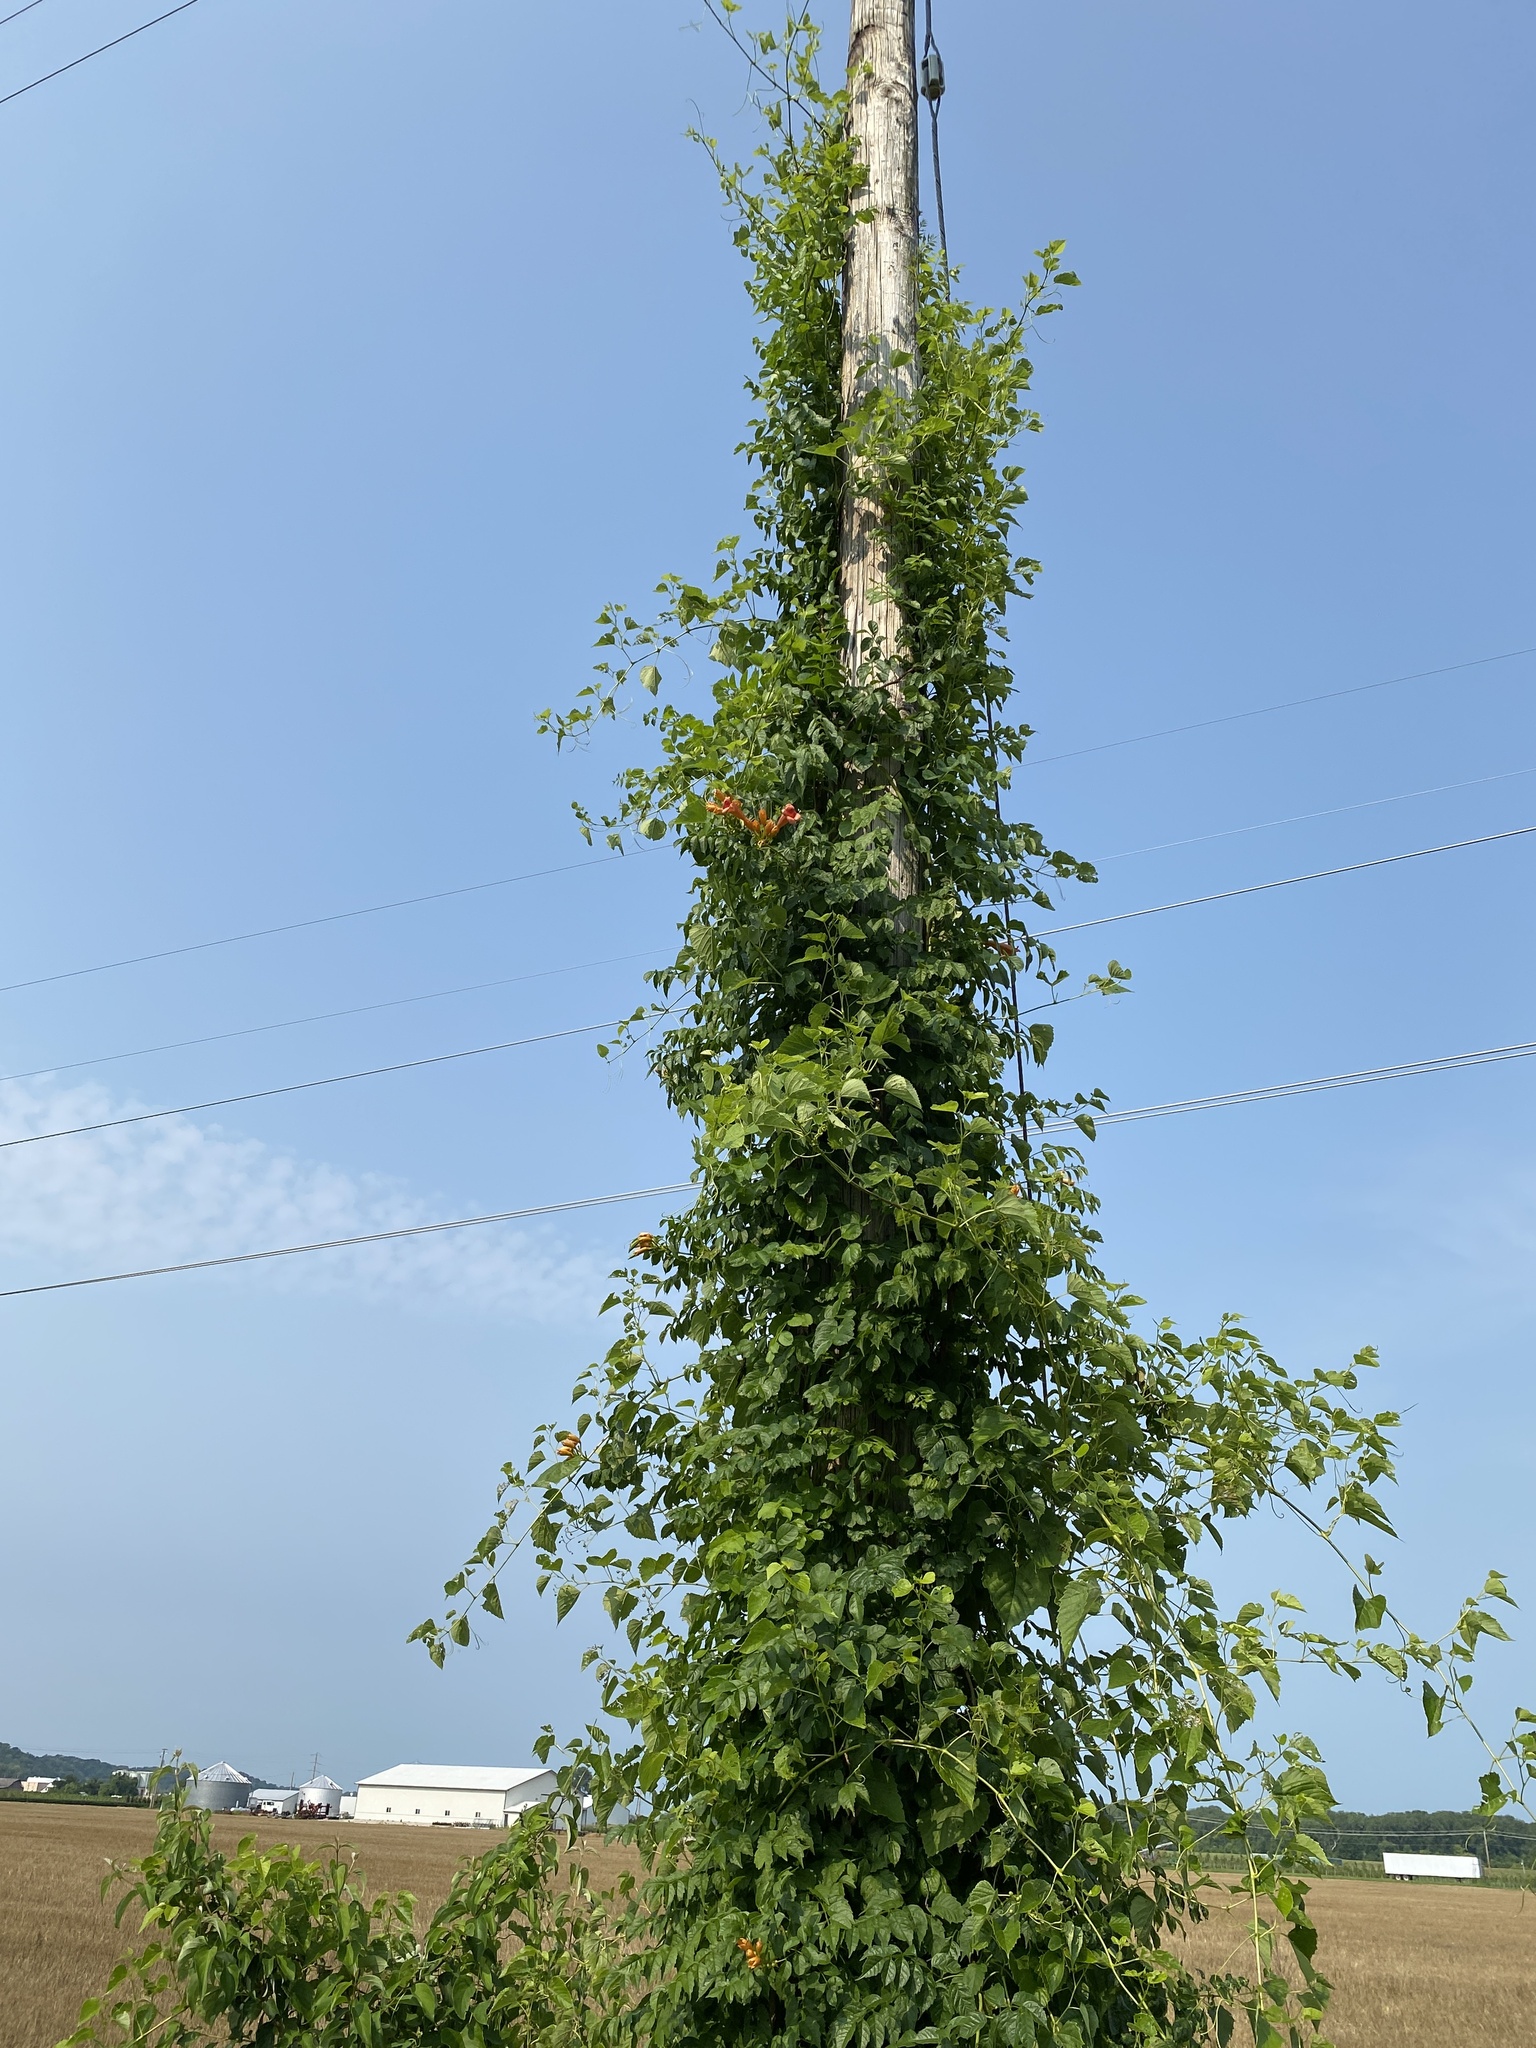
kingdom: Plantae
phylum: Tracheophyta
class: Magnoliopsida
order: Lamiales
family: Bignoniaceae
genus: Campsis
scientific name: Campsis radicans
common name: Trumpet-creeper
